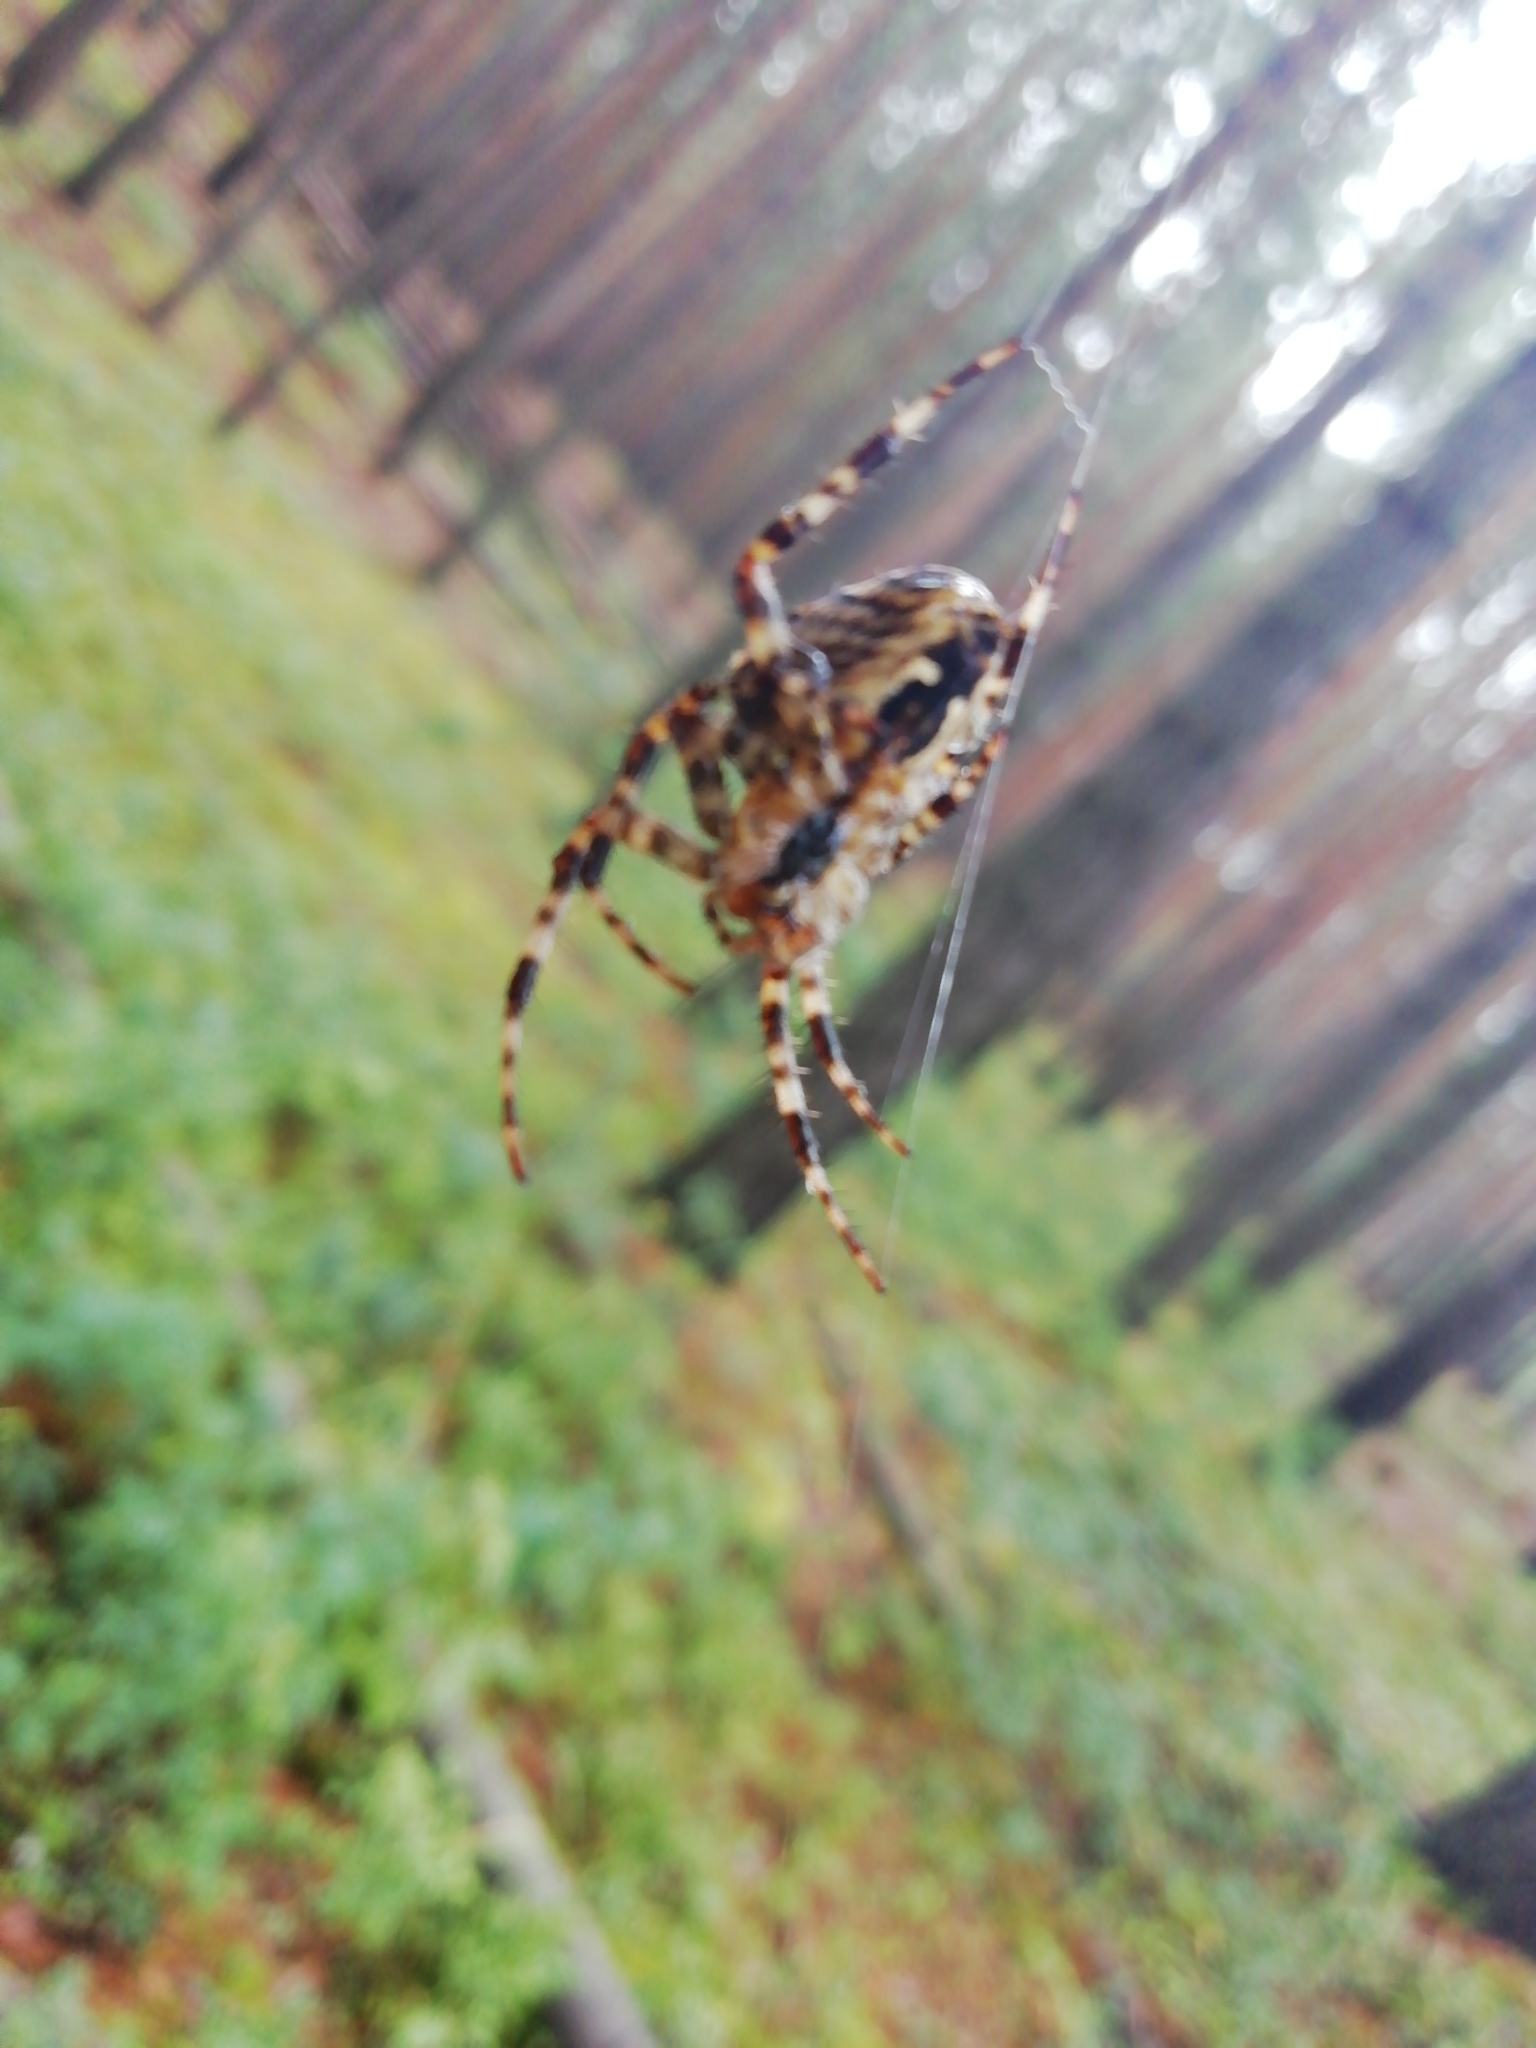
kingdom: Animalia
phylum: Arthropoda
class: Arachnida
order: Araneae
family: Araneidae
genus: Araneus
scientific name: Araneus diadematus
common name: Cross orbweaver
